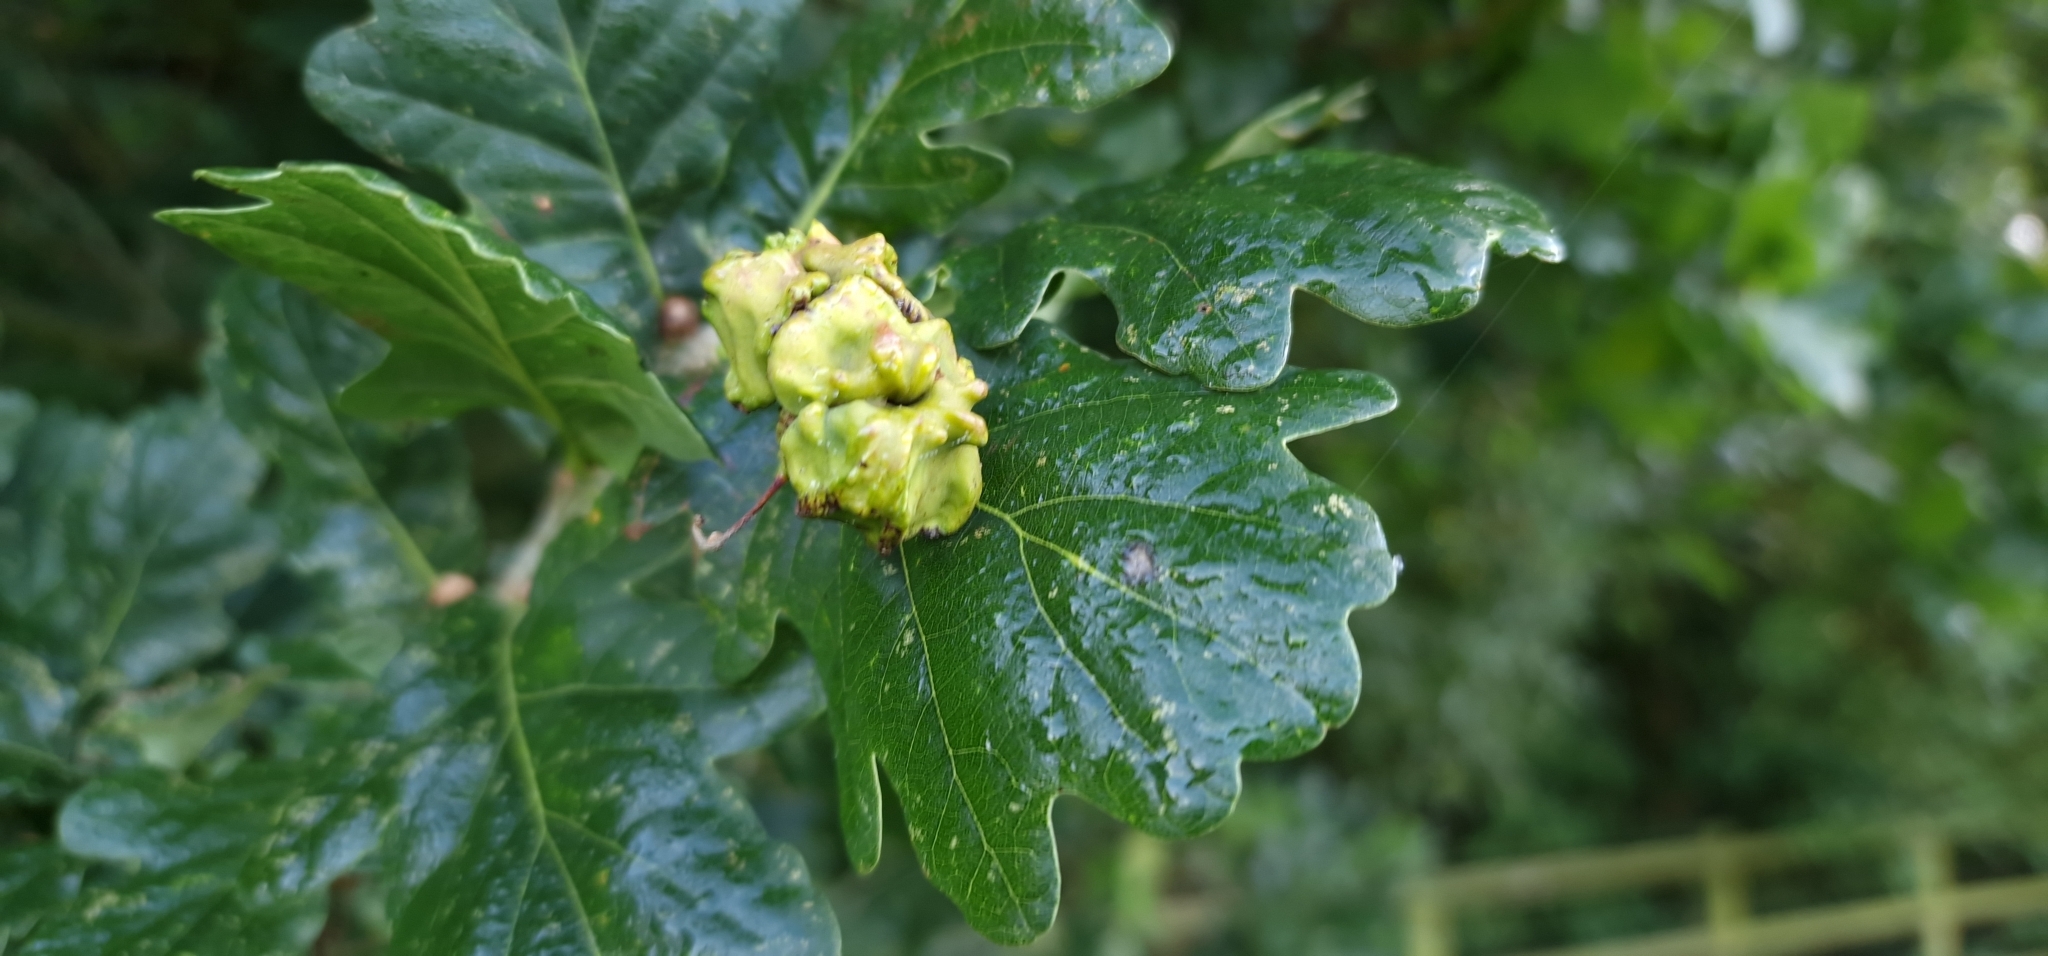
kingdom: Animalia
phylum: Arthropoda
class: Insecta
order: Hymenoptera
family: Cynipidae
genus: Andricus
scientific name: Andricus quercuscalicis
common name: Knopper gall
